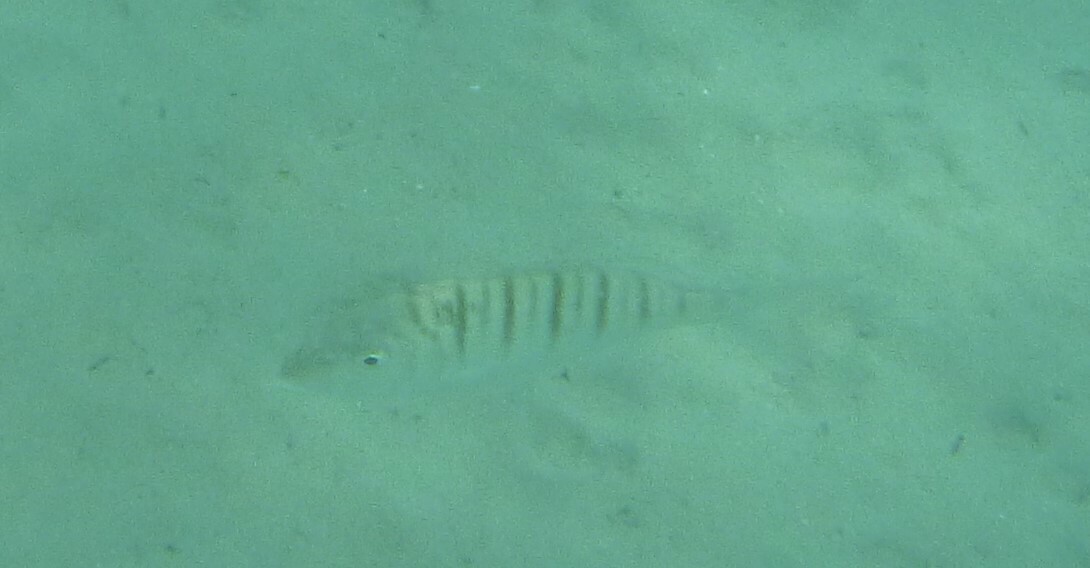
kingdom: Animalia
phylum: Chordata
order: Perciformes
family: Sparidae
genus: Lithognathus
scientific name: Lithognathus mormyrus
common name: Sand steenbras
